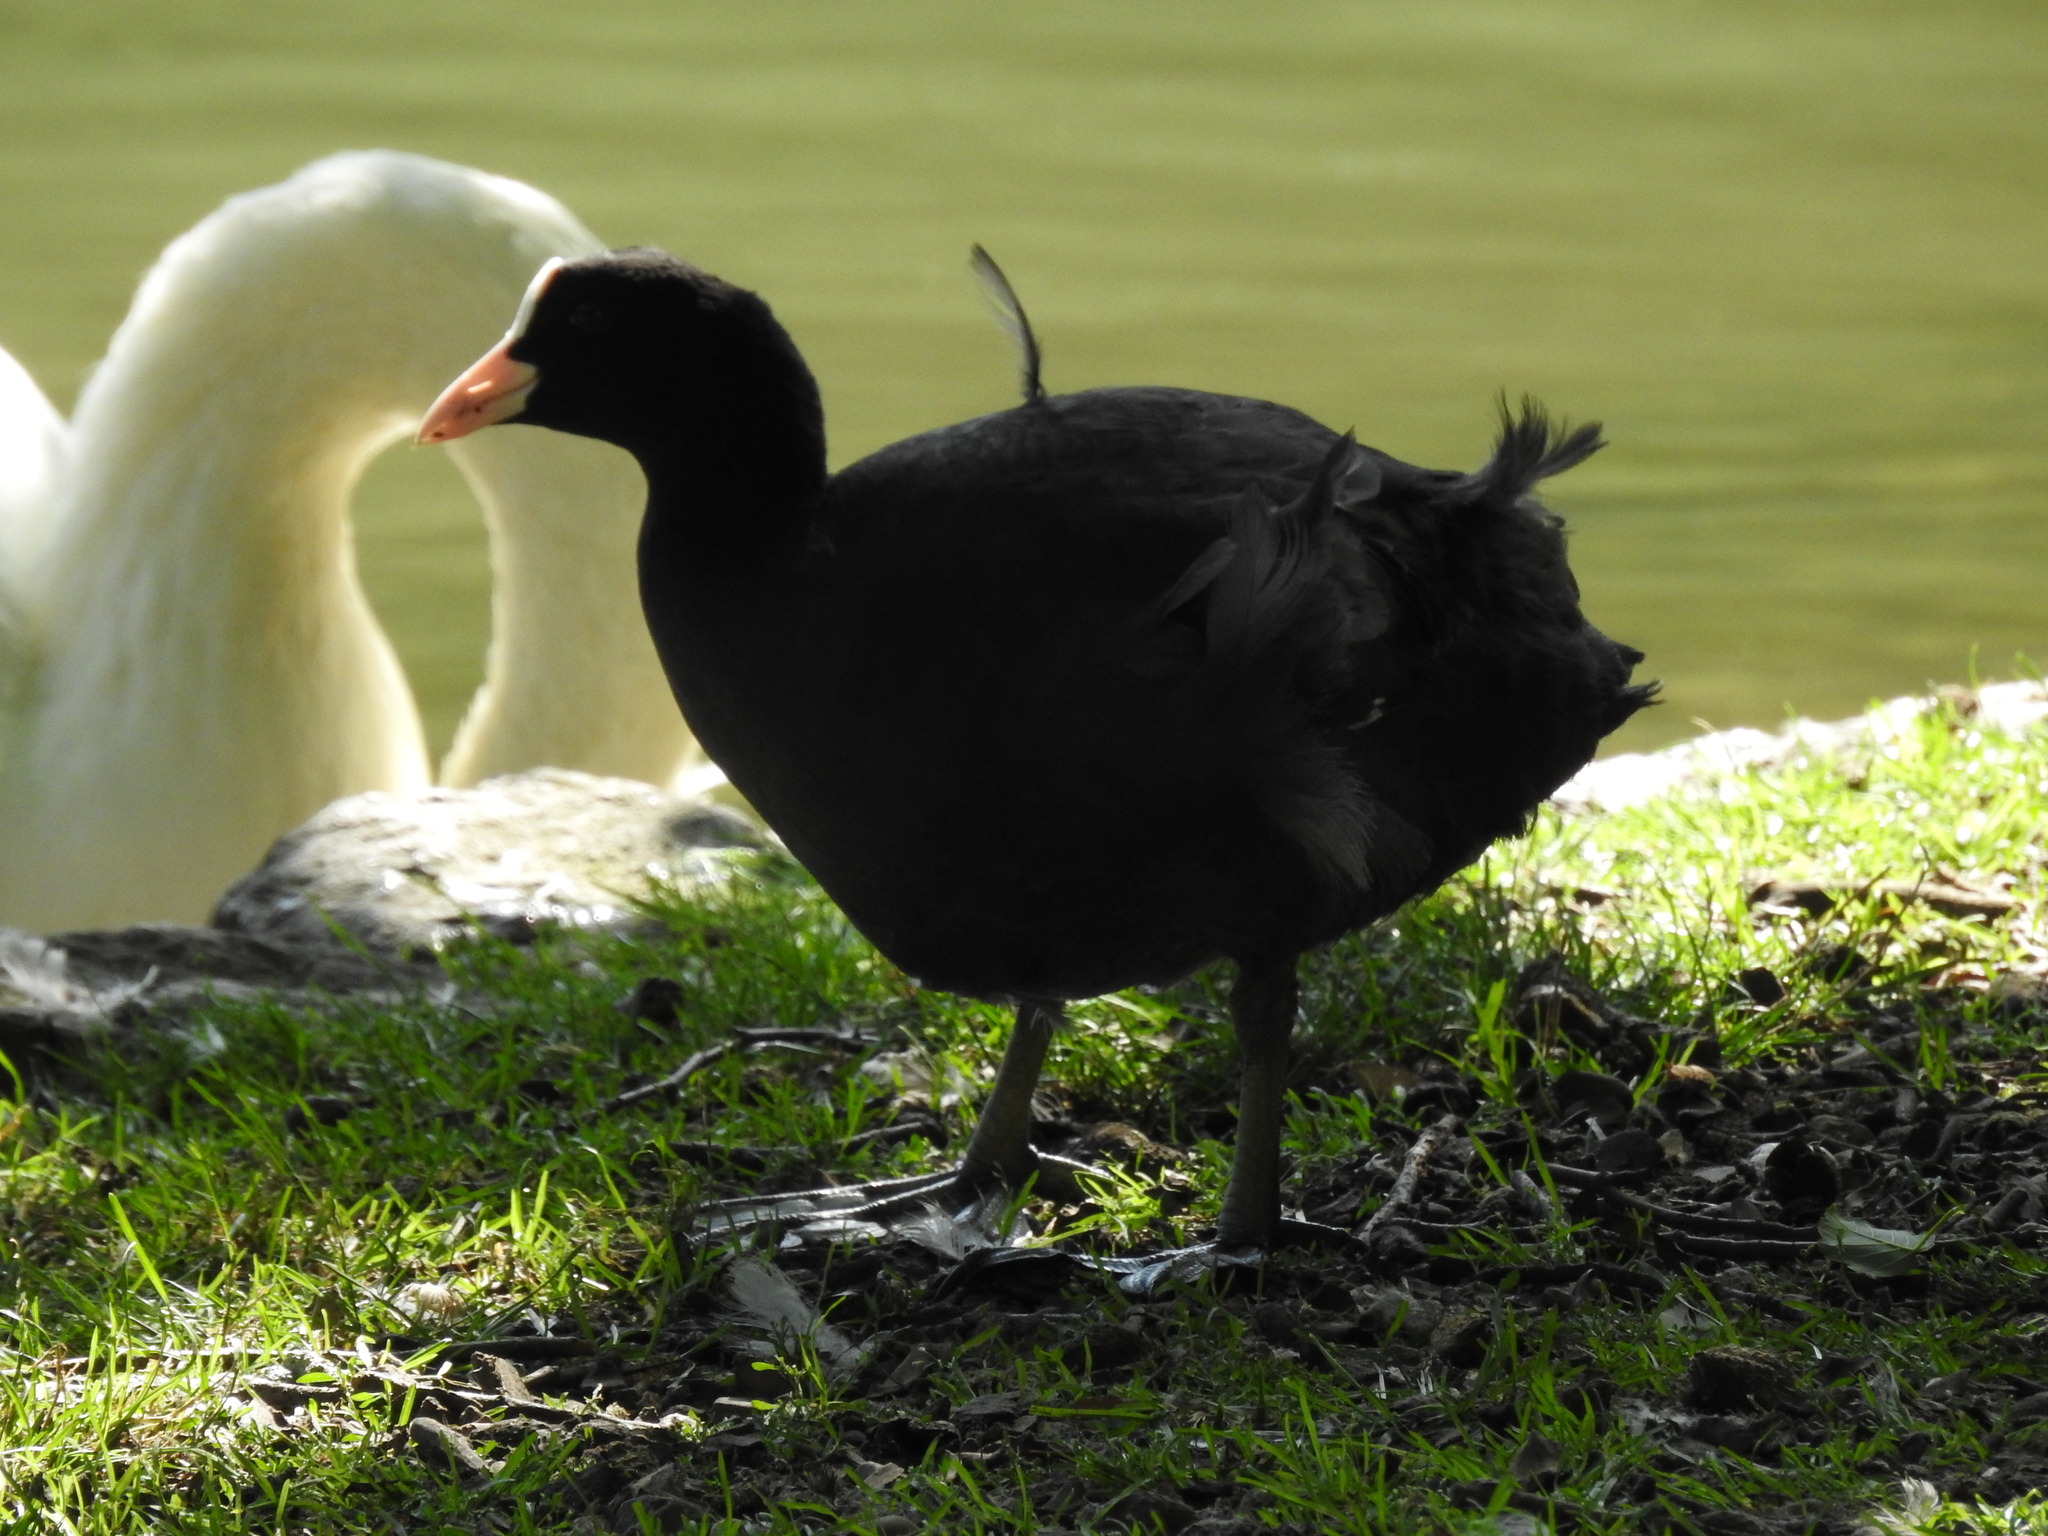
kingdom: Animalia
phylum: Chordata
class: Aves
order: Gruiformes
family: Rallidae
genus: Fulica
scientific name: Fulica atra
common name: Eurasian coot
